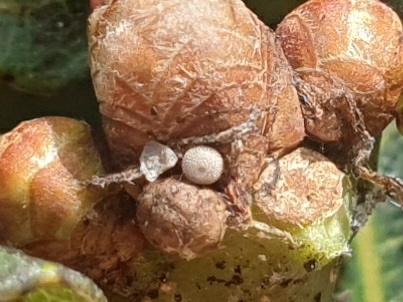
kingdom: Animalia
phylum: Arthropoda
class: Insecta
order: Lepidoptera
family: Lycaenidae
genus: Quercusia
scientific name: Quercusia quercus
